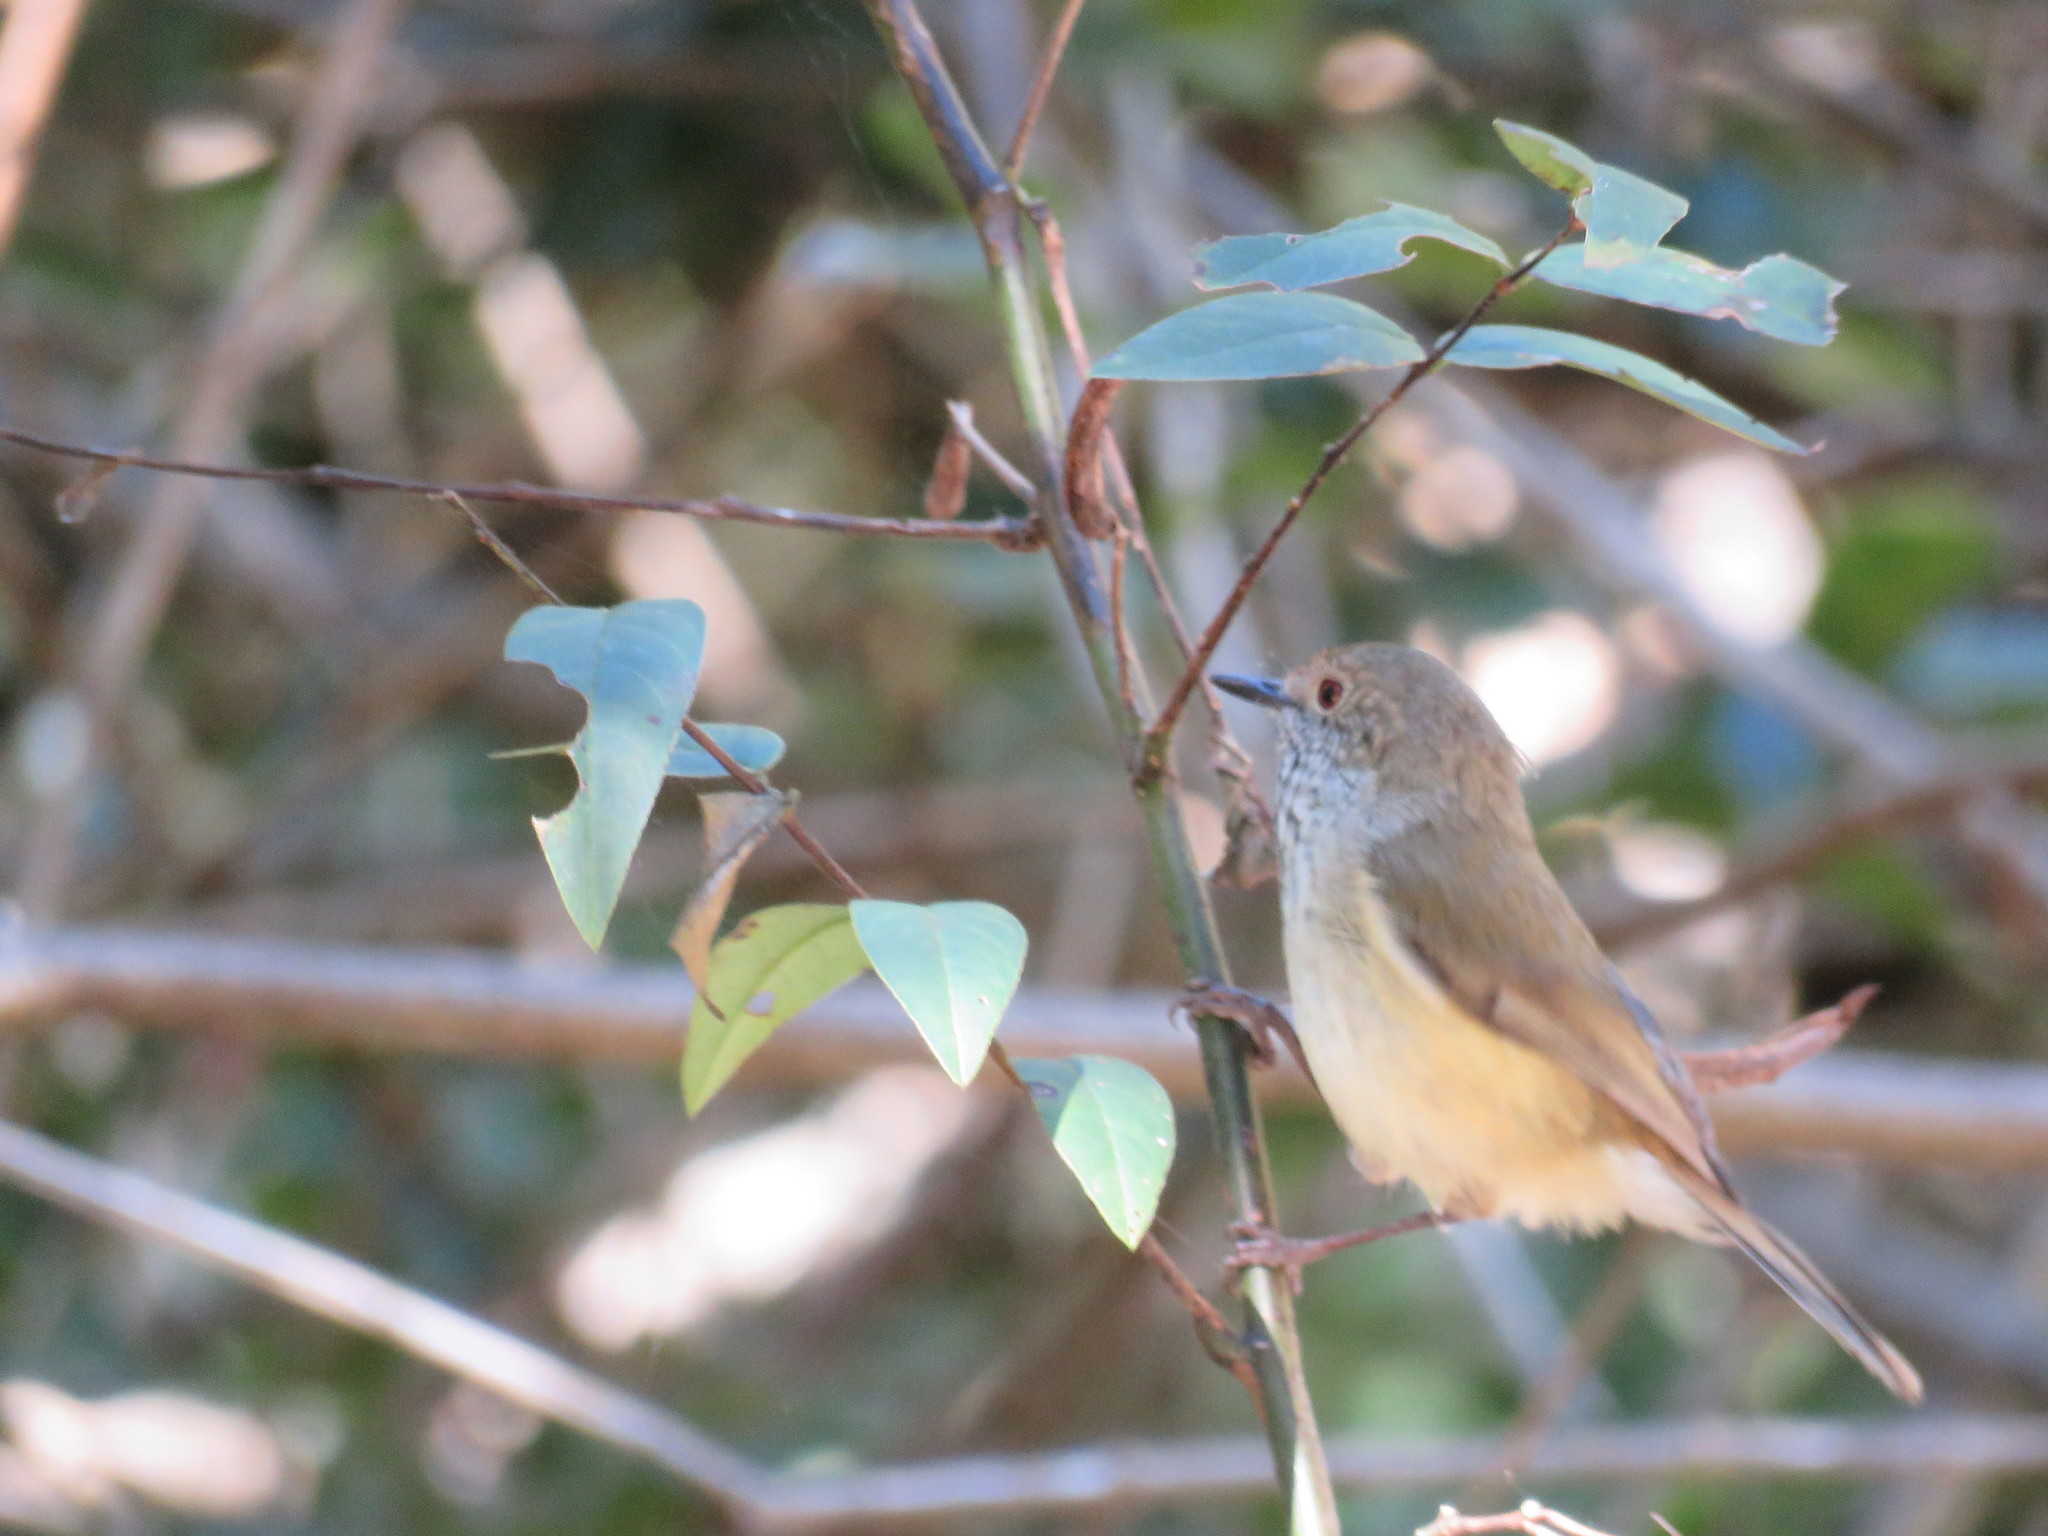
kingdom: Animalia
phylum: Chordata
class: Aves
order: Passeriformes
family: Acanthizidae
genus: Acanthiza
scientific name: Acanthiza pusilla
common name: Brown thornbill
